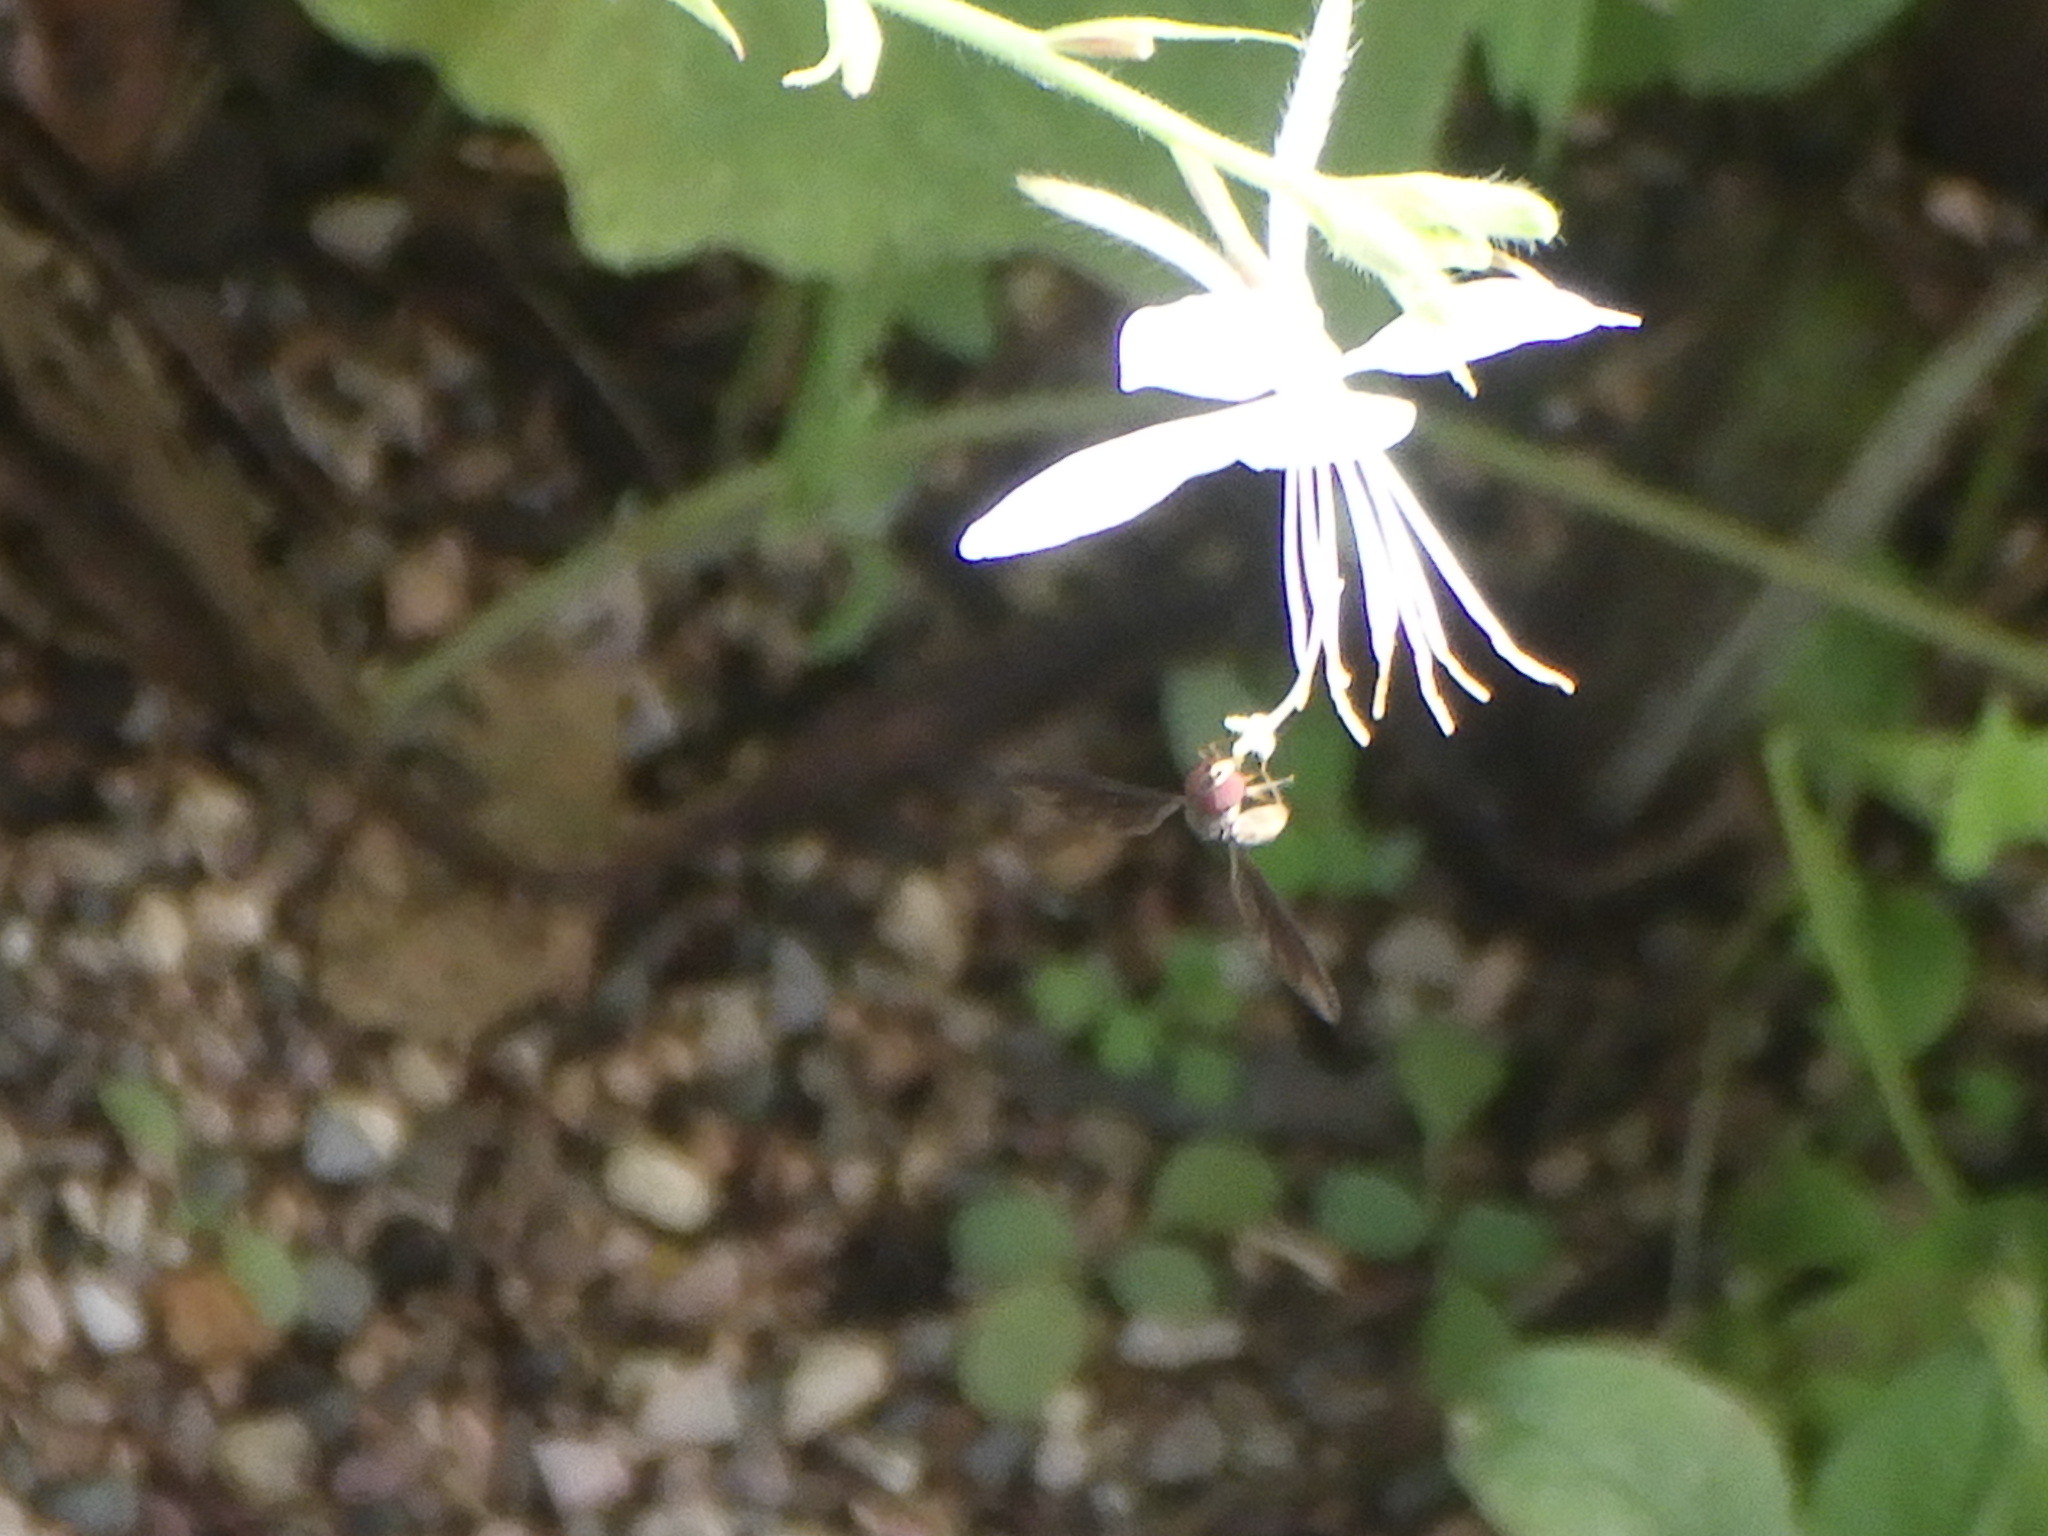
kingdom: Animalia
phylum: Arthropoda
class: Insecta
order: Diptera
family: Syrphidae
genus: Ocyptamus
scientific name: Ocyptamus fuscipennis
